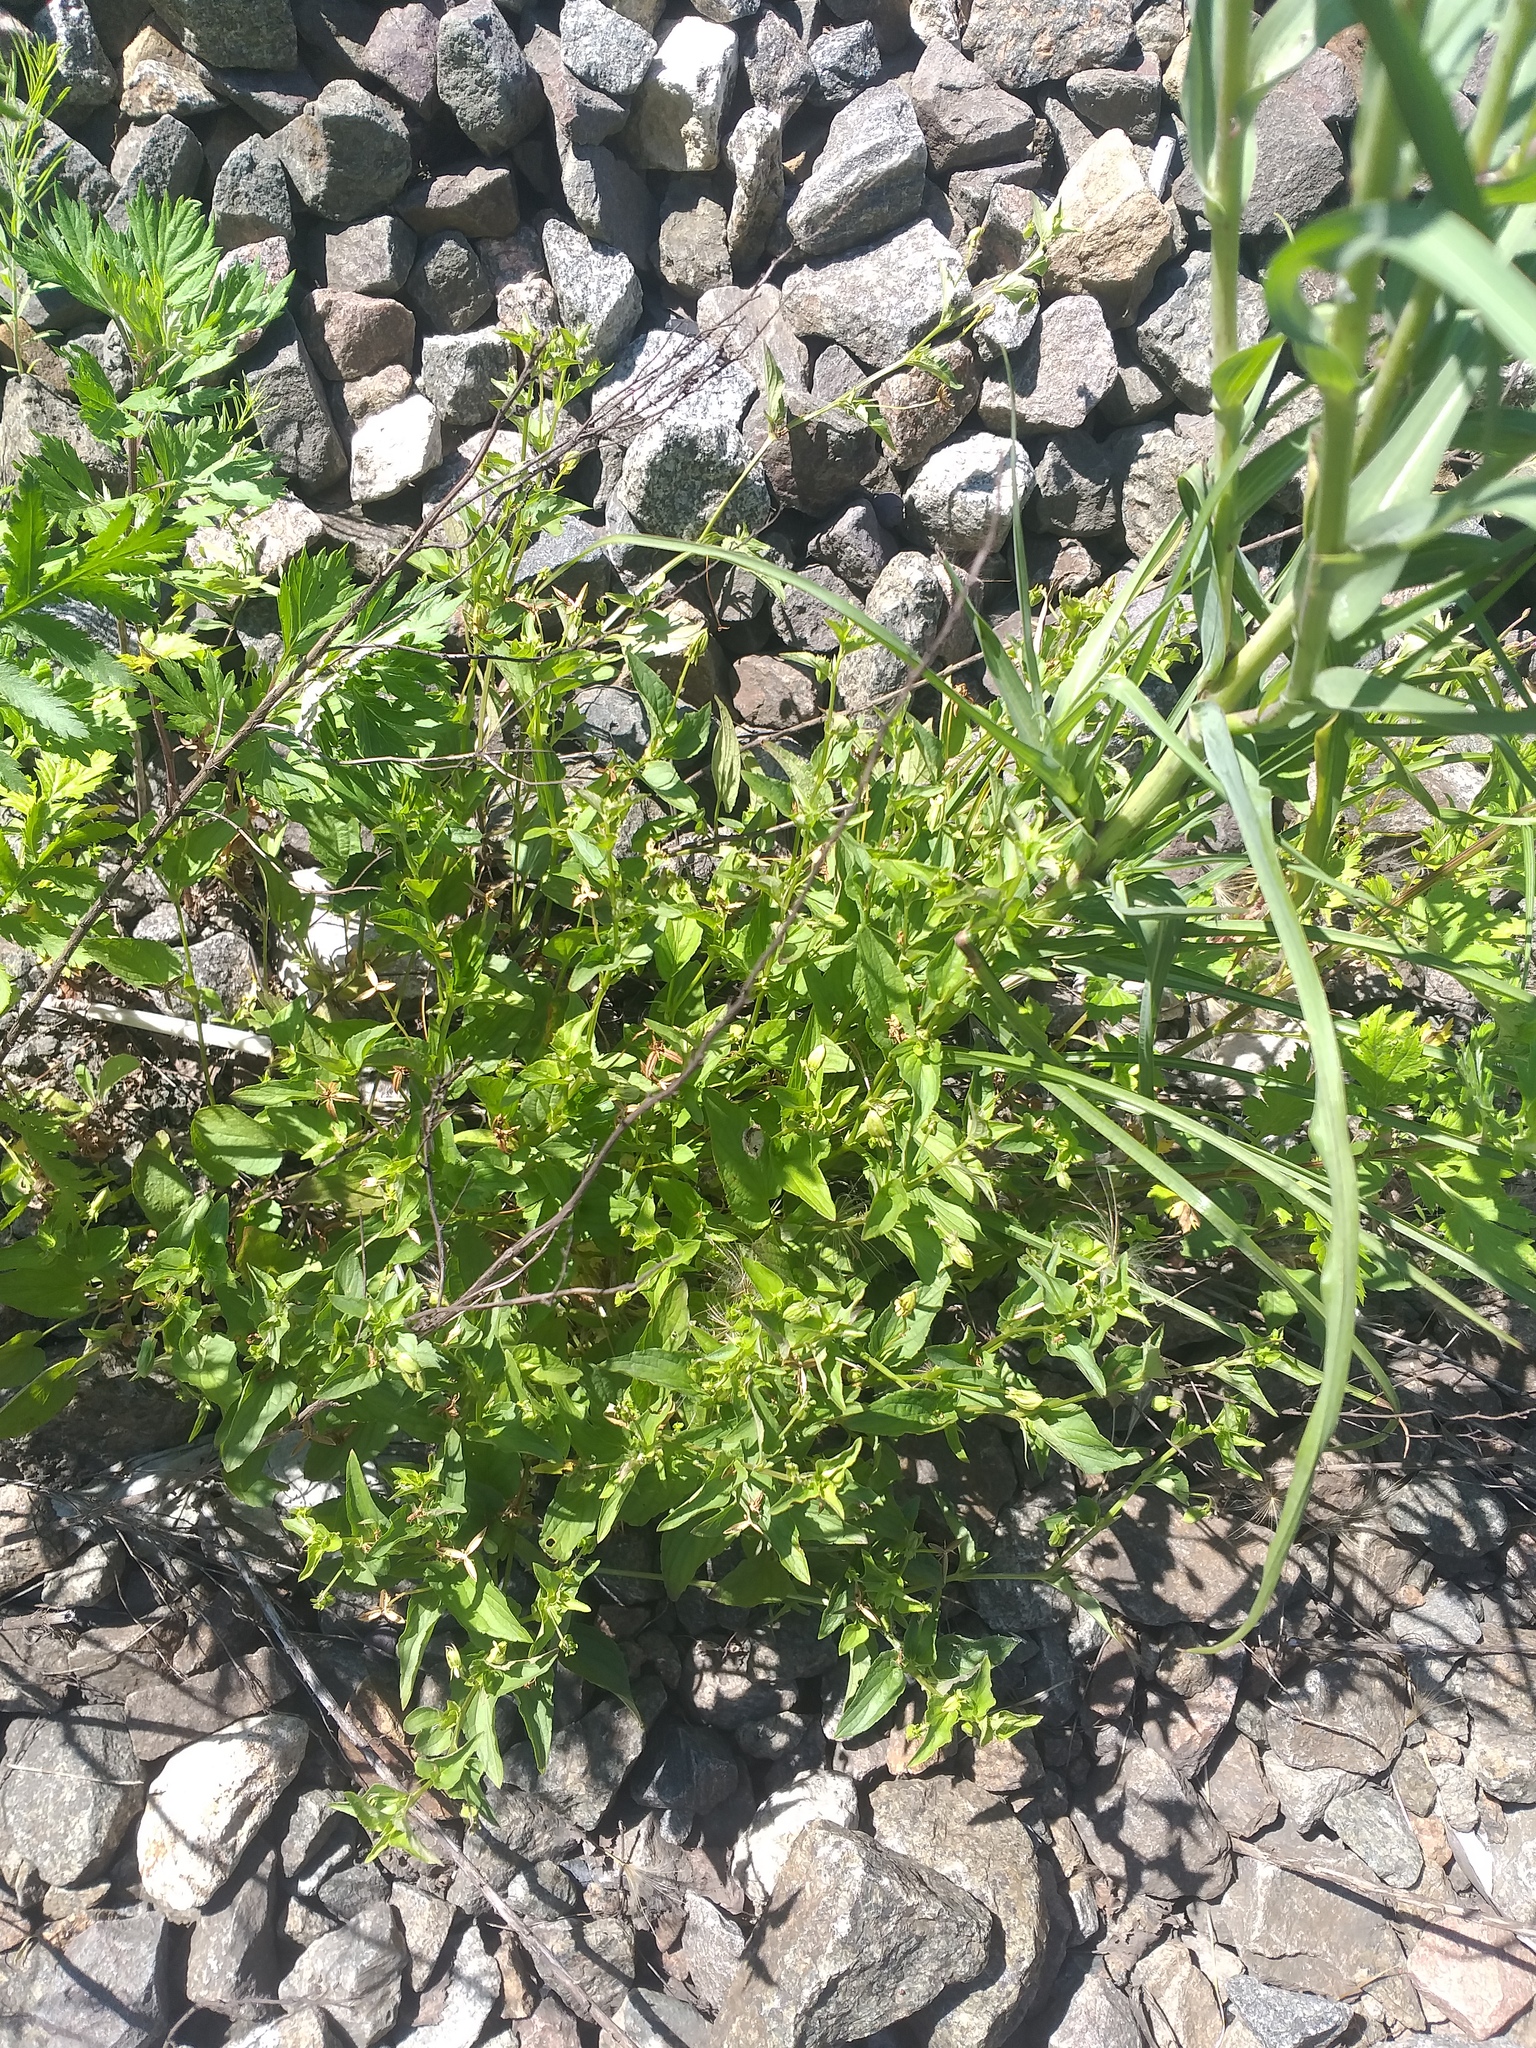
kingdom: Plantae
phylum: Tracheophyta
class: Magnoliopsida
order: Malpighiales
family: Violaceae
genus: Viola
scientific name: Viola canina
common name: Heath dog-violet
